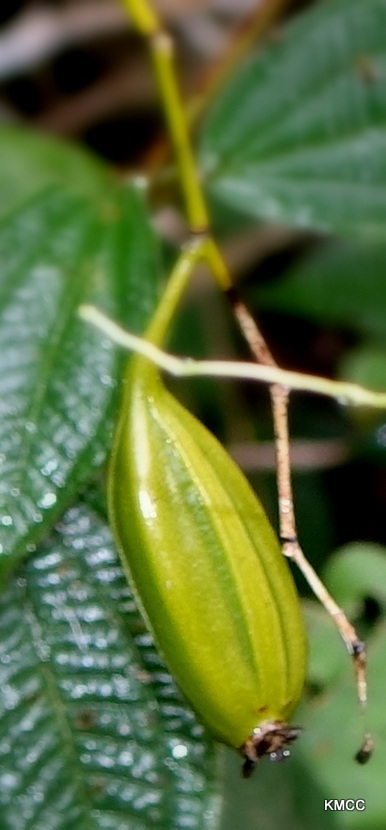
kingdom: Plantae
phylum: Tracheophyta
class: Liliopsida
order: Asparagales
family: Orchidaceae
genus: Oeonia
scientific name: Oeonia rosea
